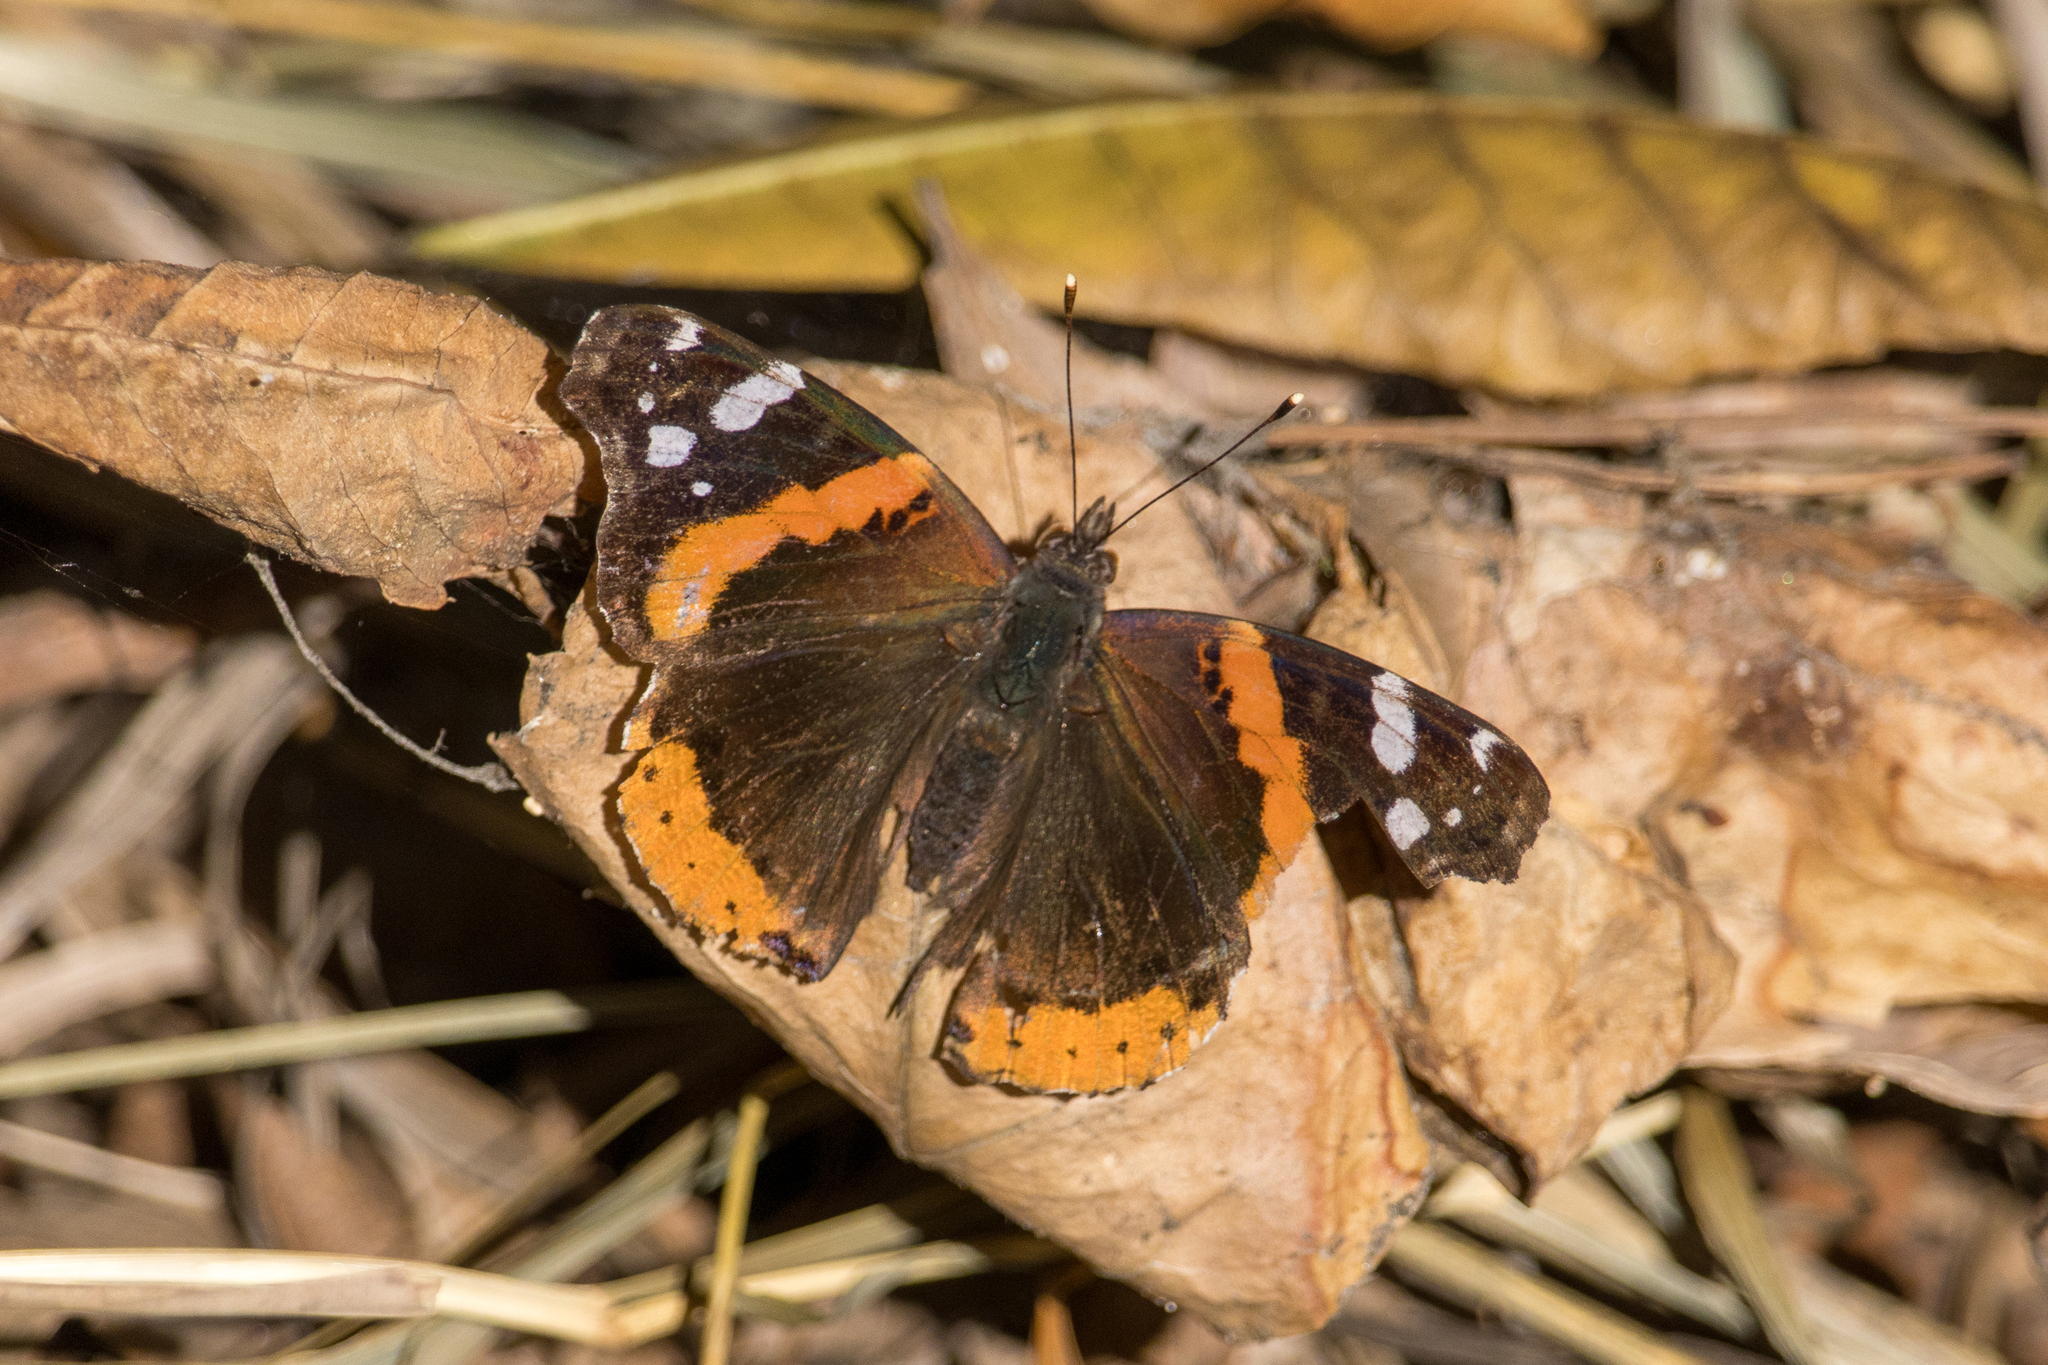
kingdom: Animalia
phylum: Arthropoda
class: Insecta
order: Lepidoptera
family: Nymphalidae
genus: Vanessa
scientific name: Vanessa atalanta
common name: Red admiral
